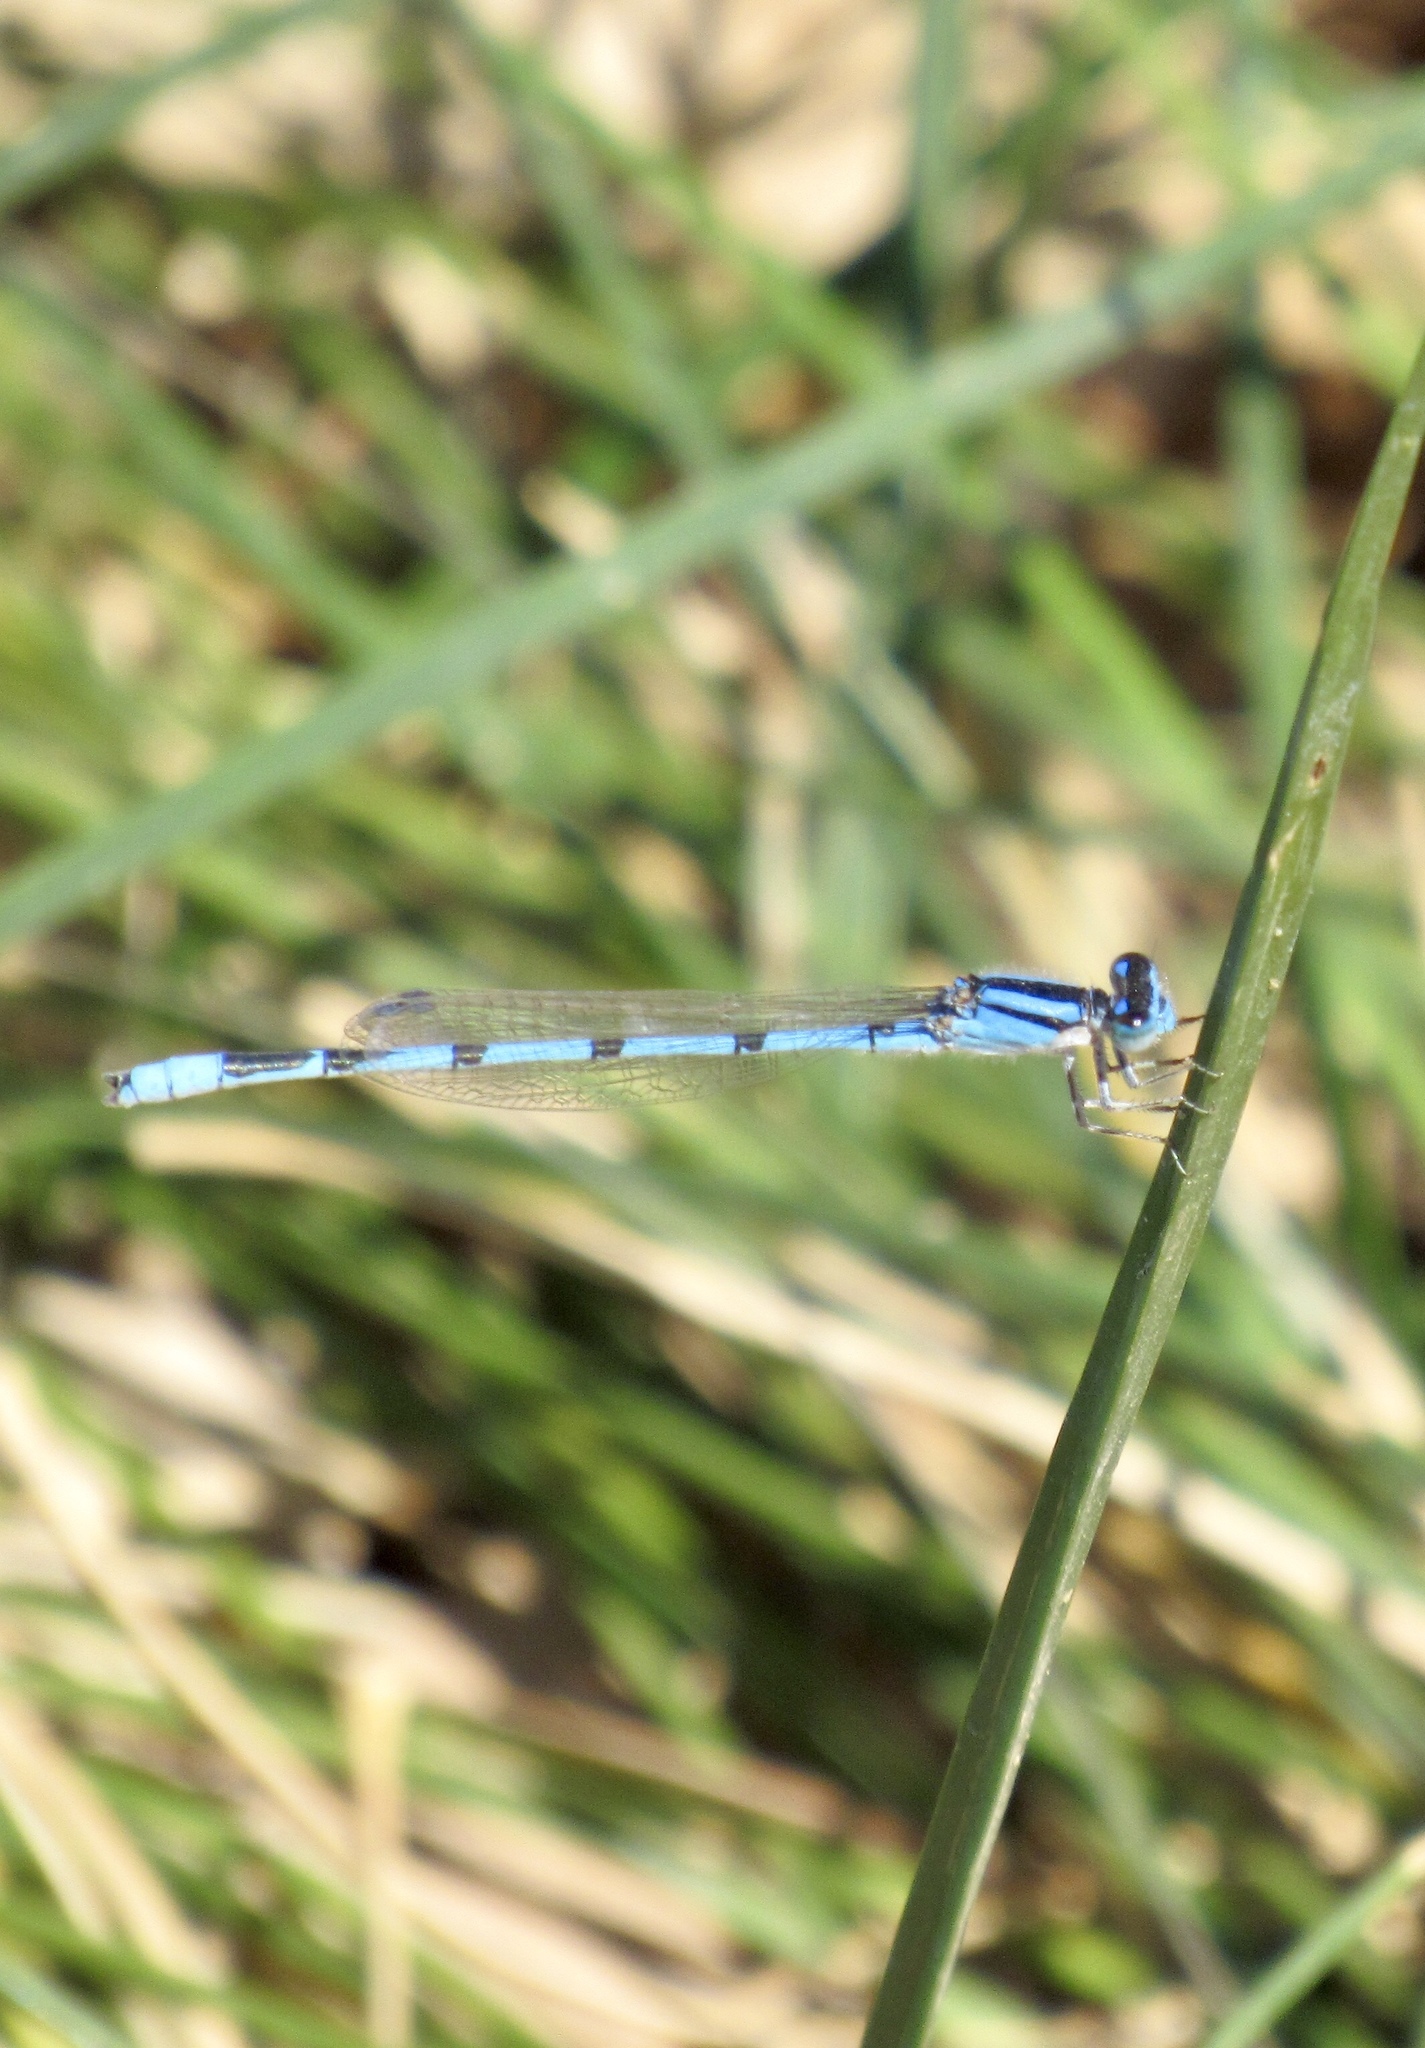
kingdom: Animalia
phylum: Arthropoda
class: Insecta
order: Odonata
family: Coenagrionidae
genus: Enallagma
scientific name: Enallagma civile
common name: Damselfly
